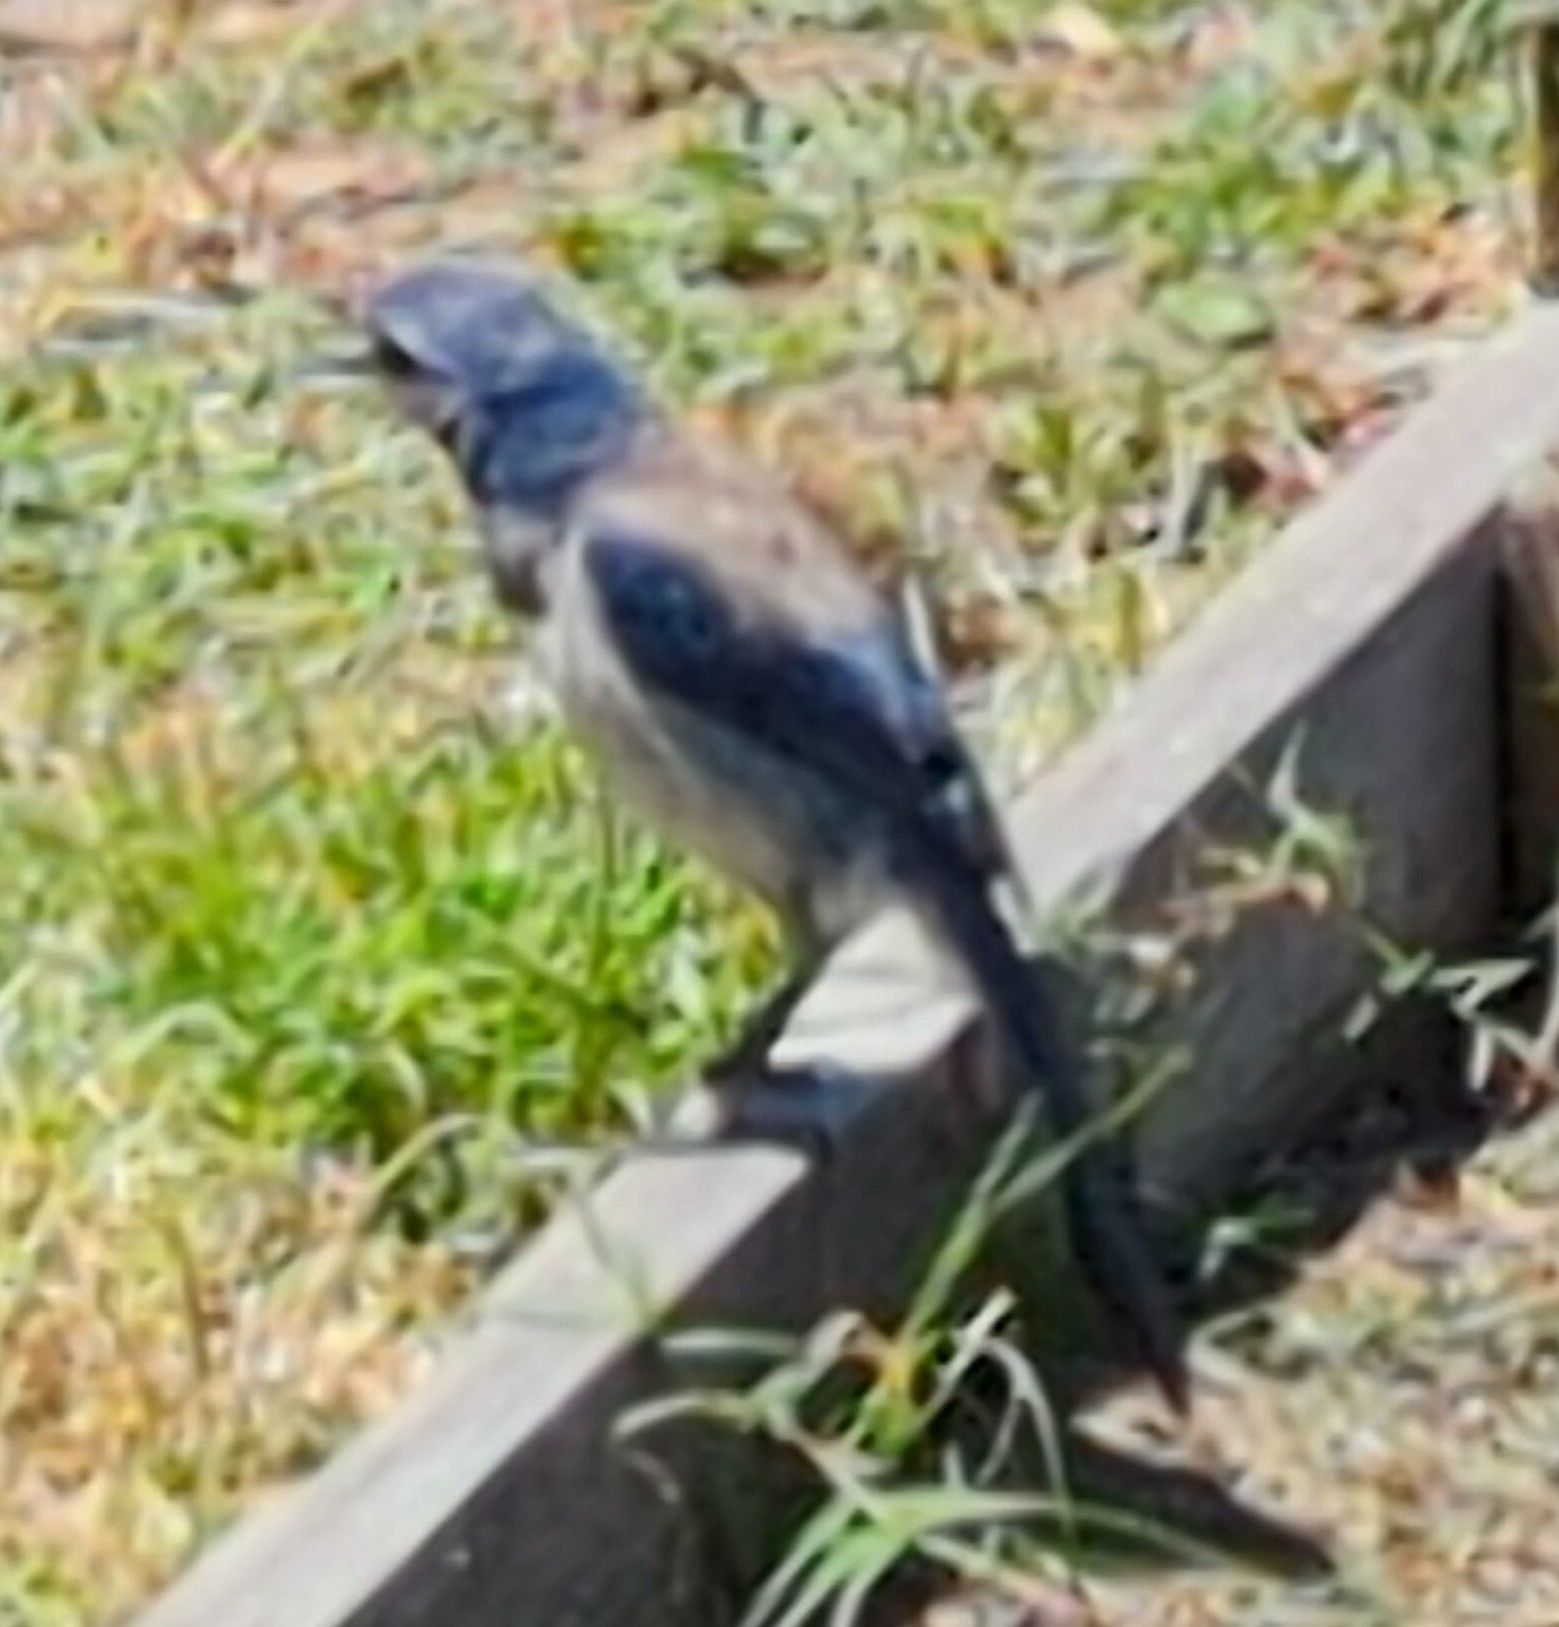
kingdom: Animalia
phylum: Chordata
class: Aves
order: Passeriformes
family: Corvidae
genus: Aphelocoma
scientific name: Aphelocoma californica
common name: California scrub-jay
